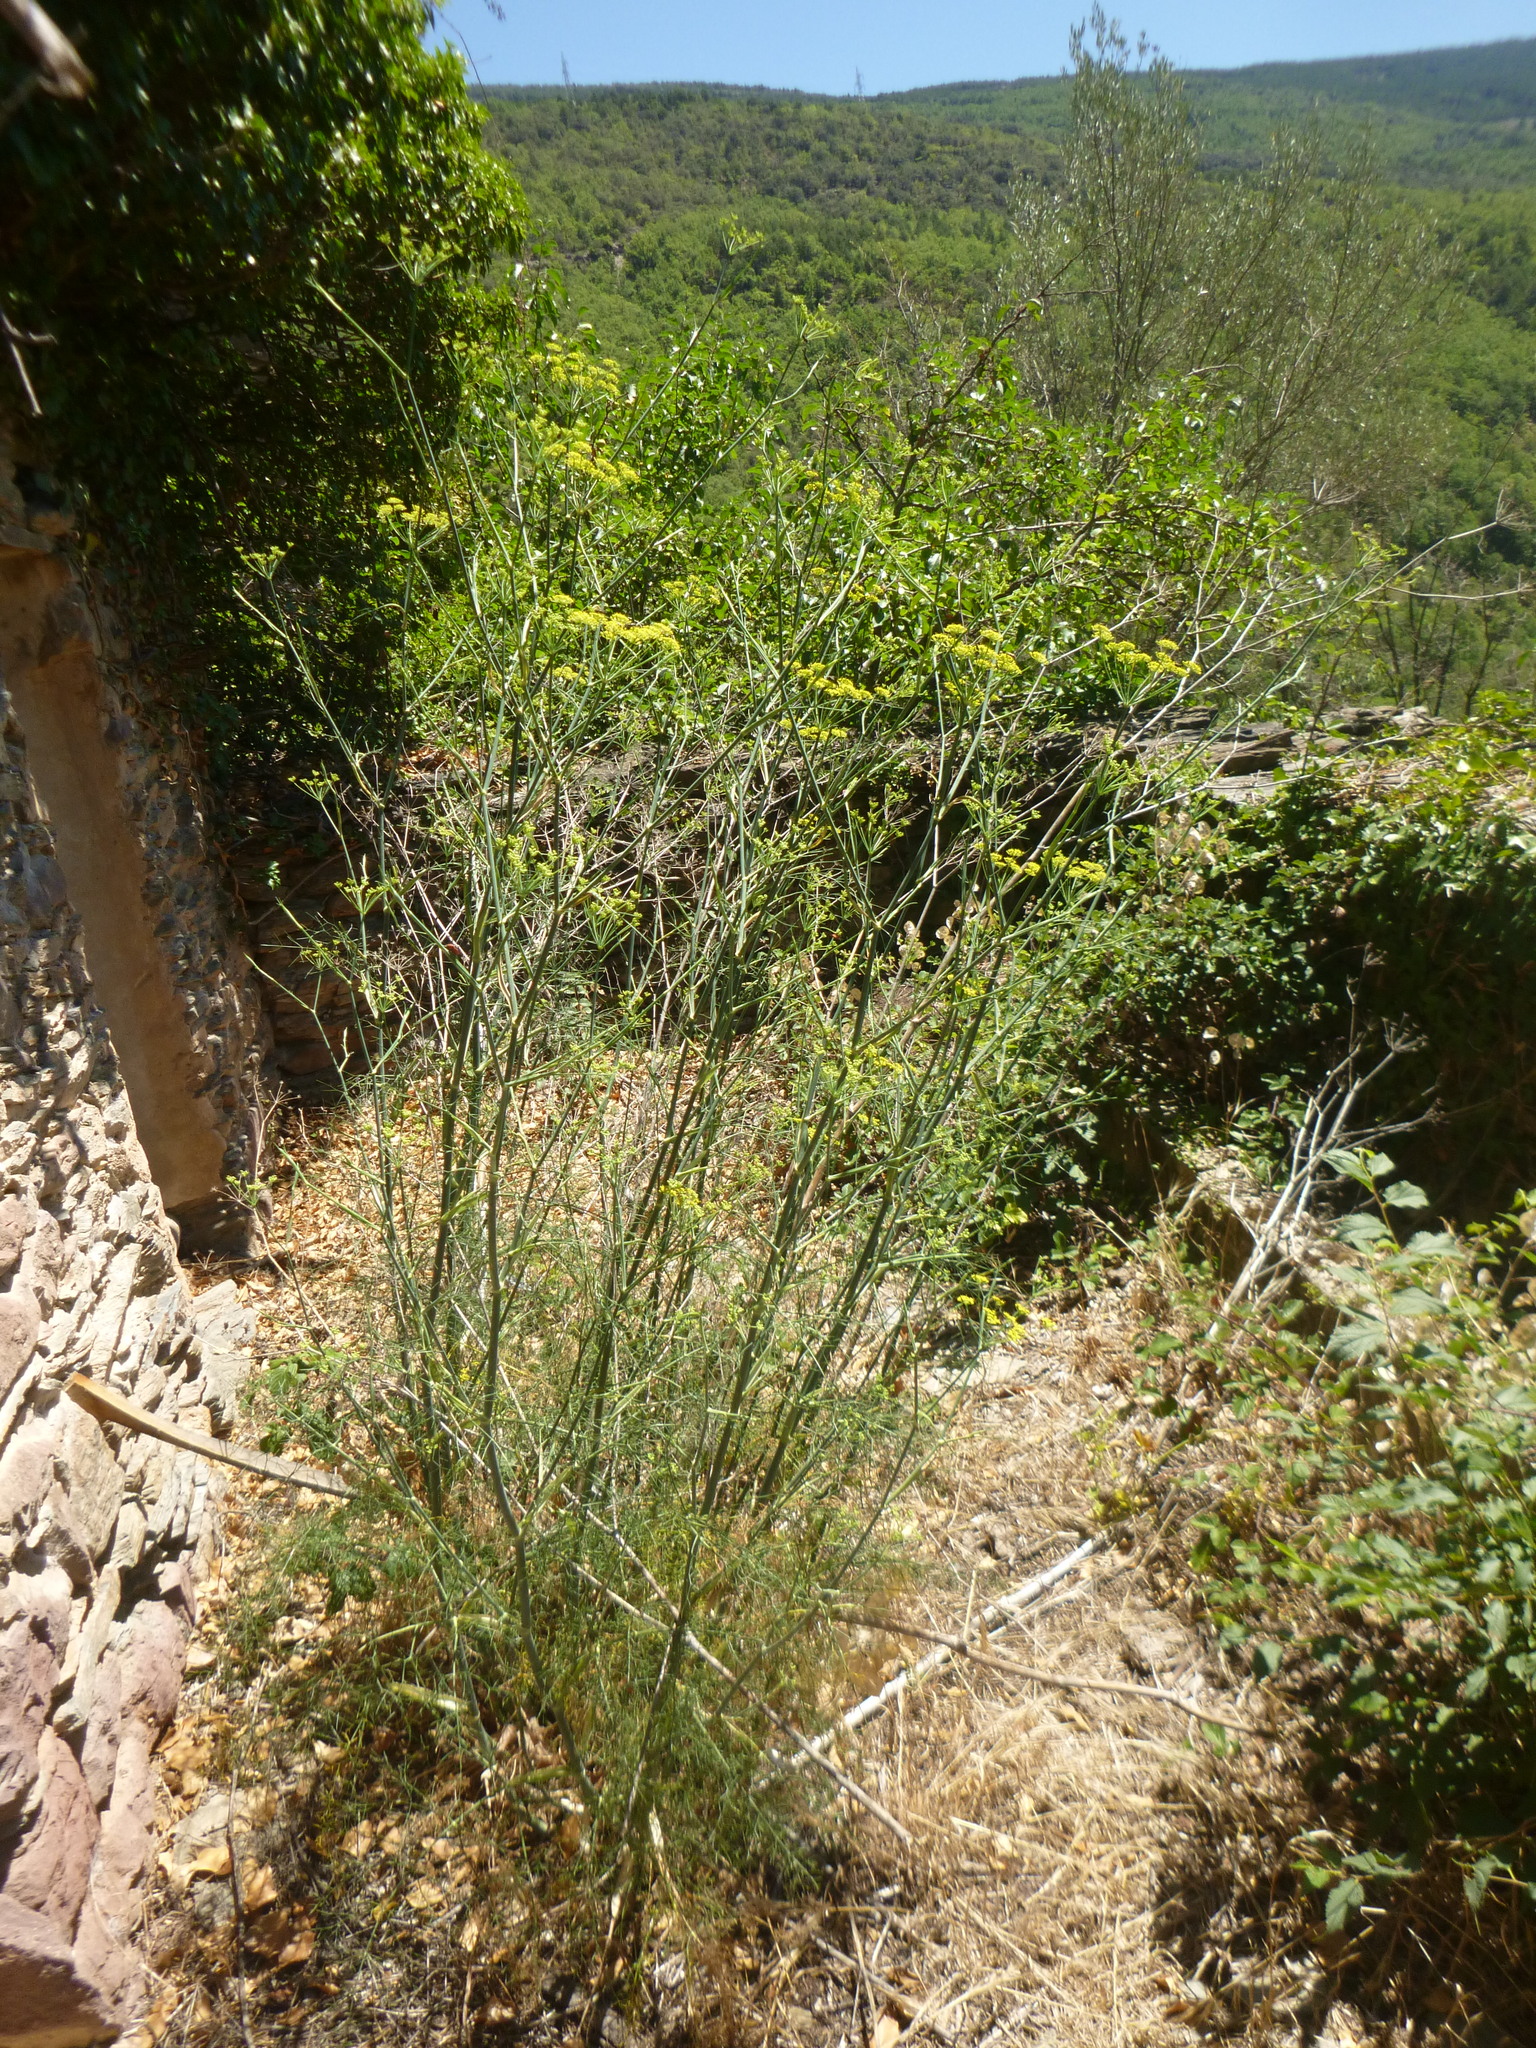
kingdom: Plantae
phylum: Tracheophyta
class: Magnoliopsida
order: Apiales
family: Apiaceae
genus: Foeniculum
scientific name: Foeniculum vulgare
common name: Fennel
